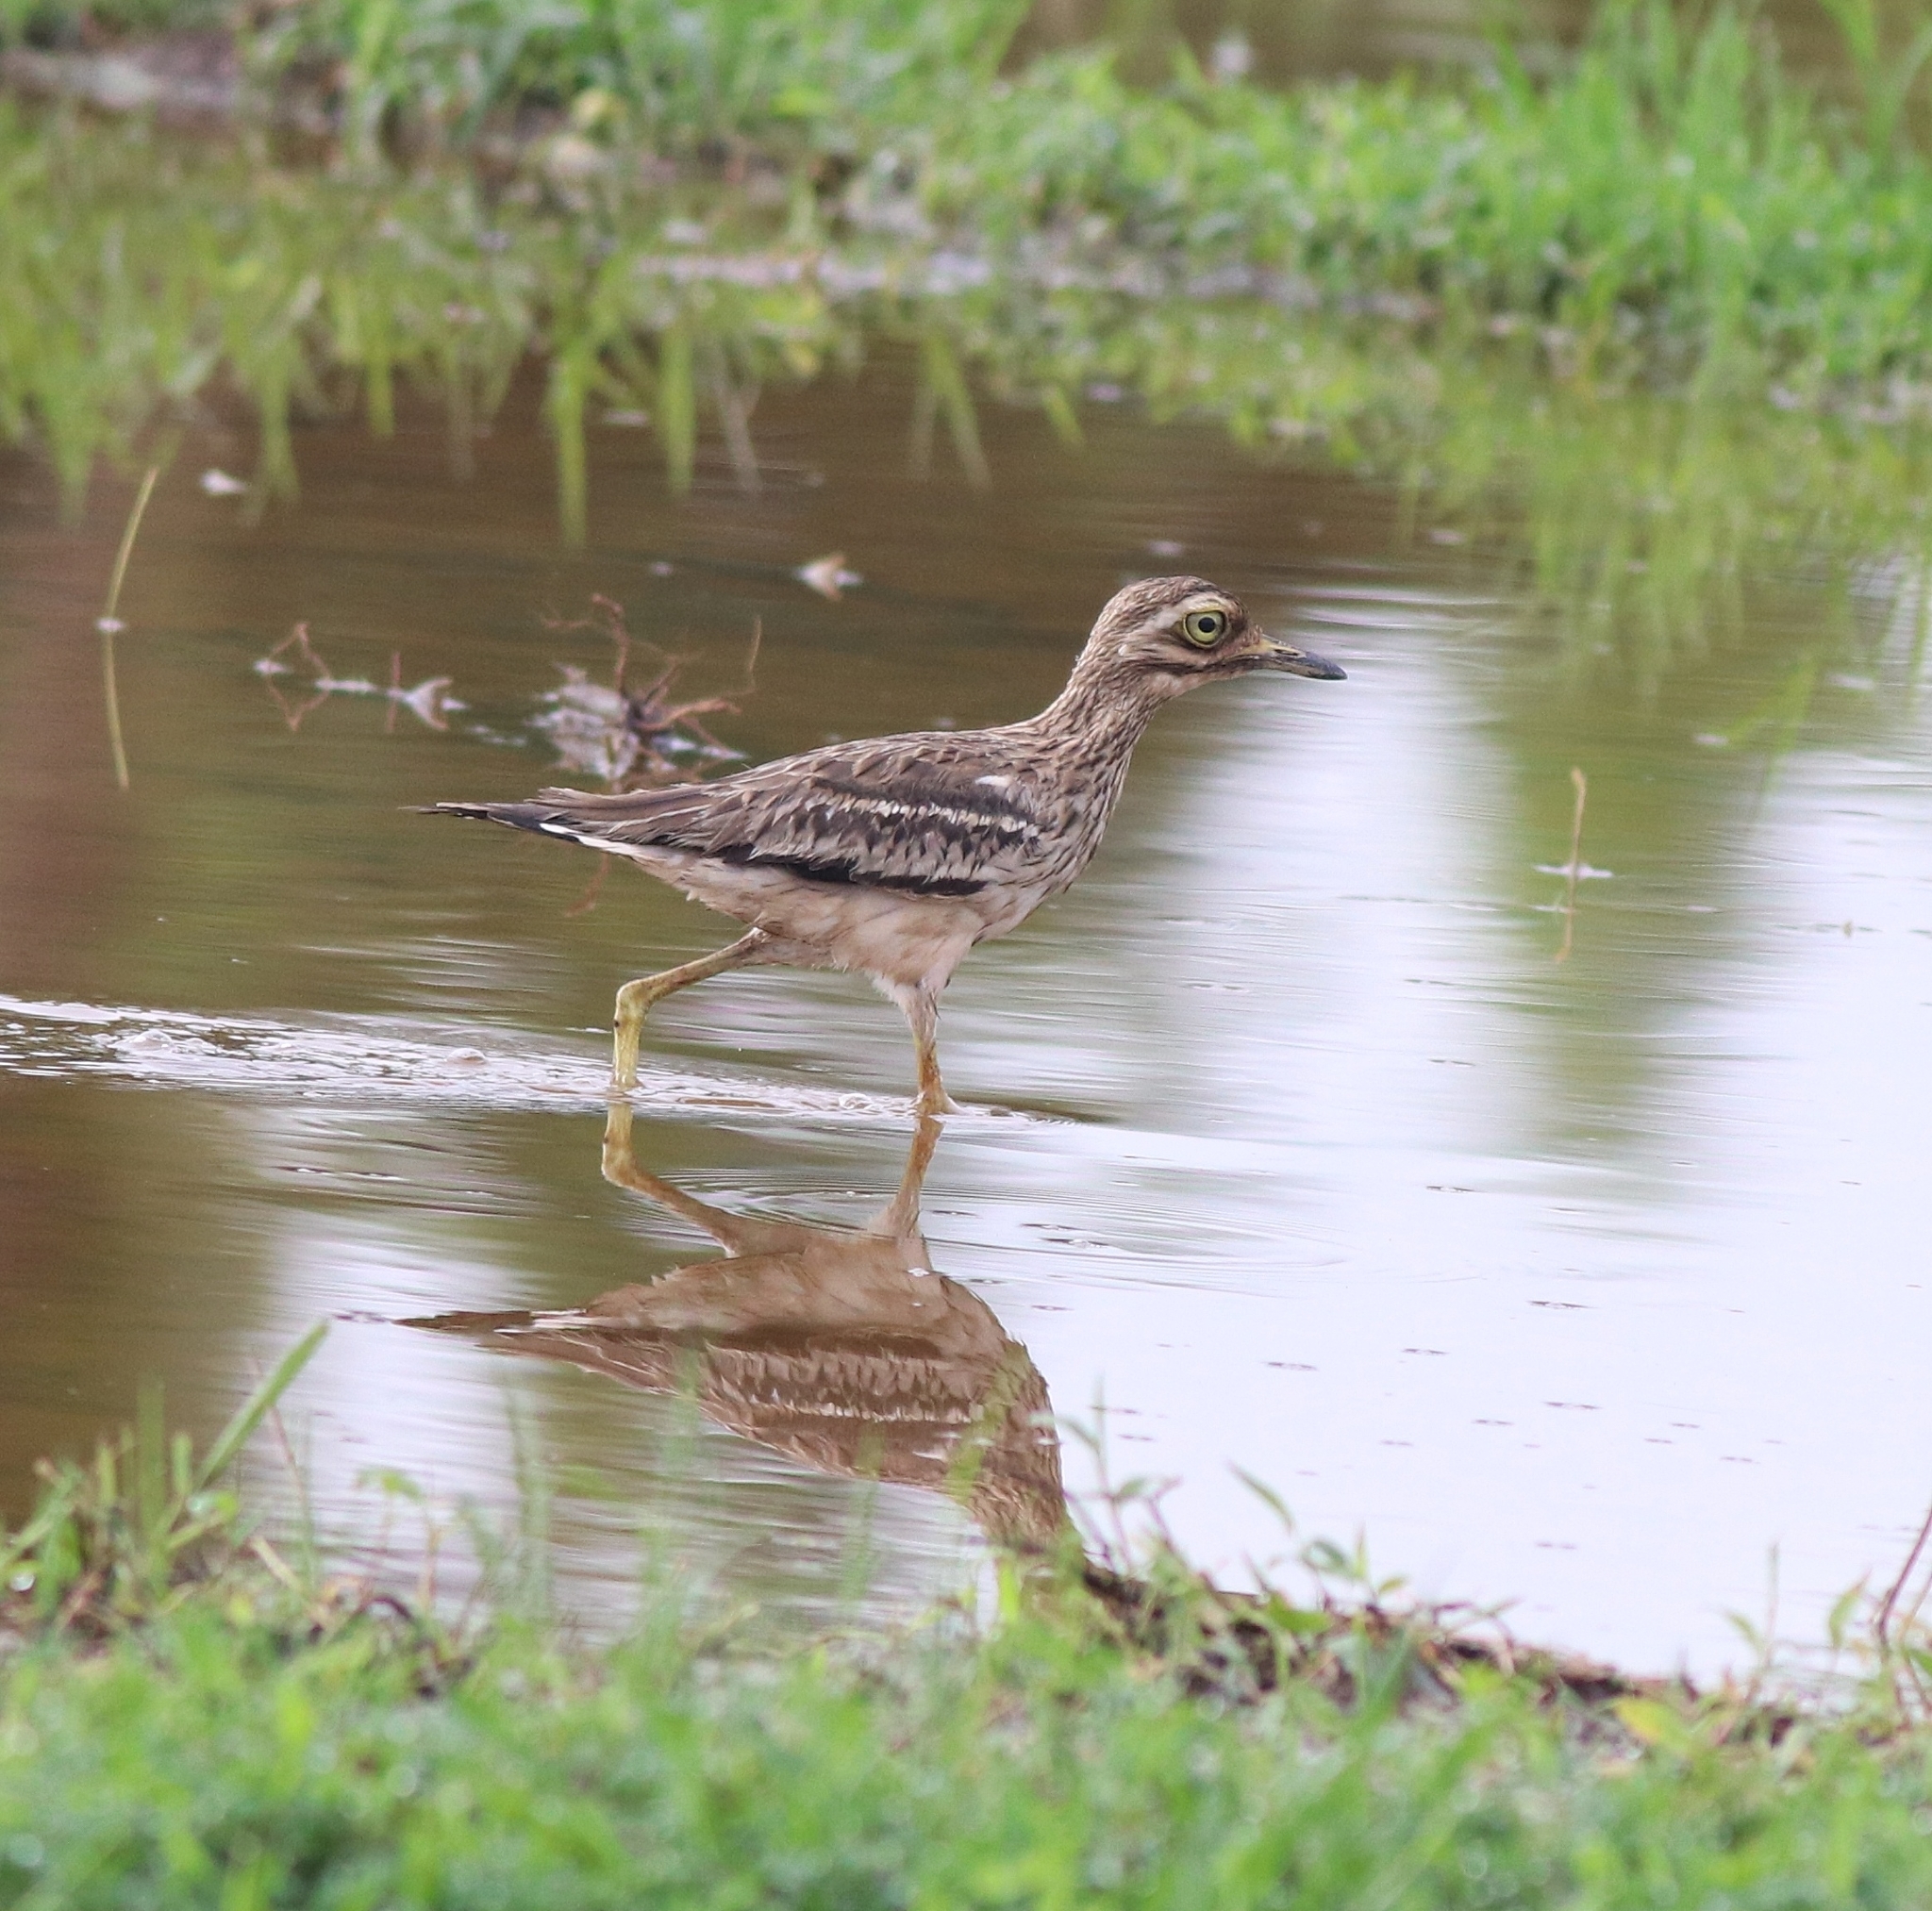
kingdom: Animalia
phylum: Chordata
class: Aves
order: Charadriiformes
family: Burhinidae
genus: Burhinus
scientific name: Burhinus indicus
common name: Indian thick-knee
